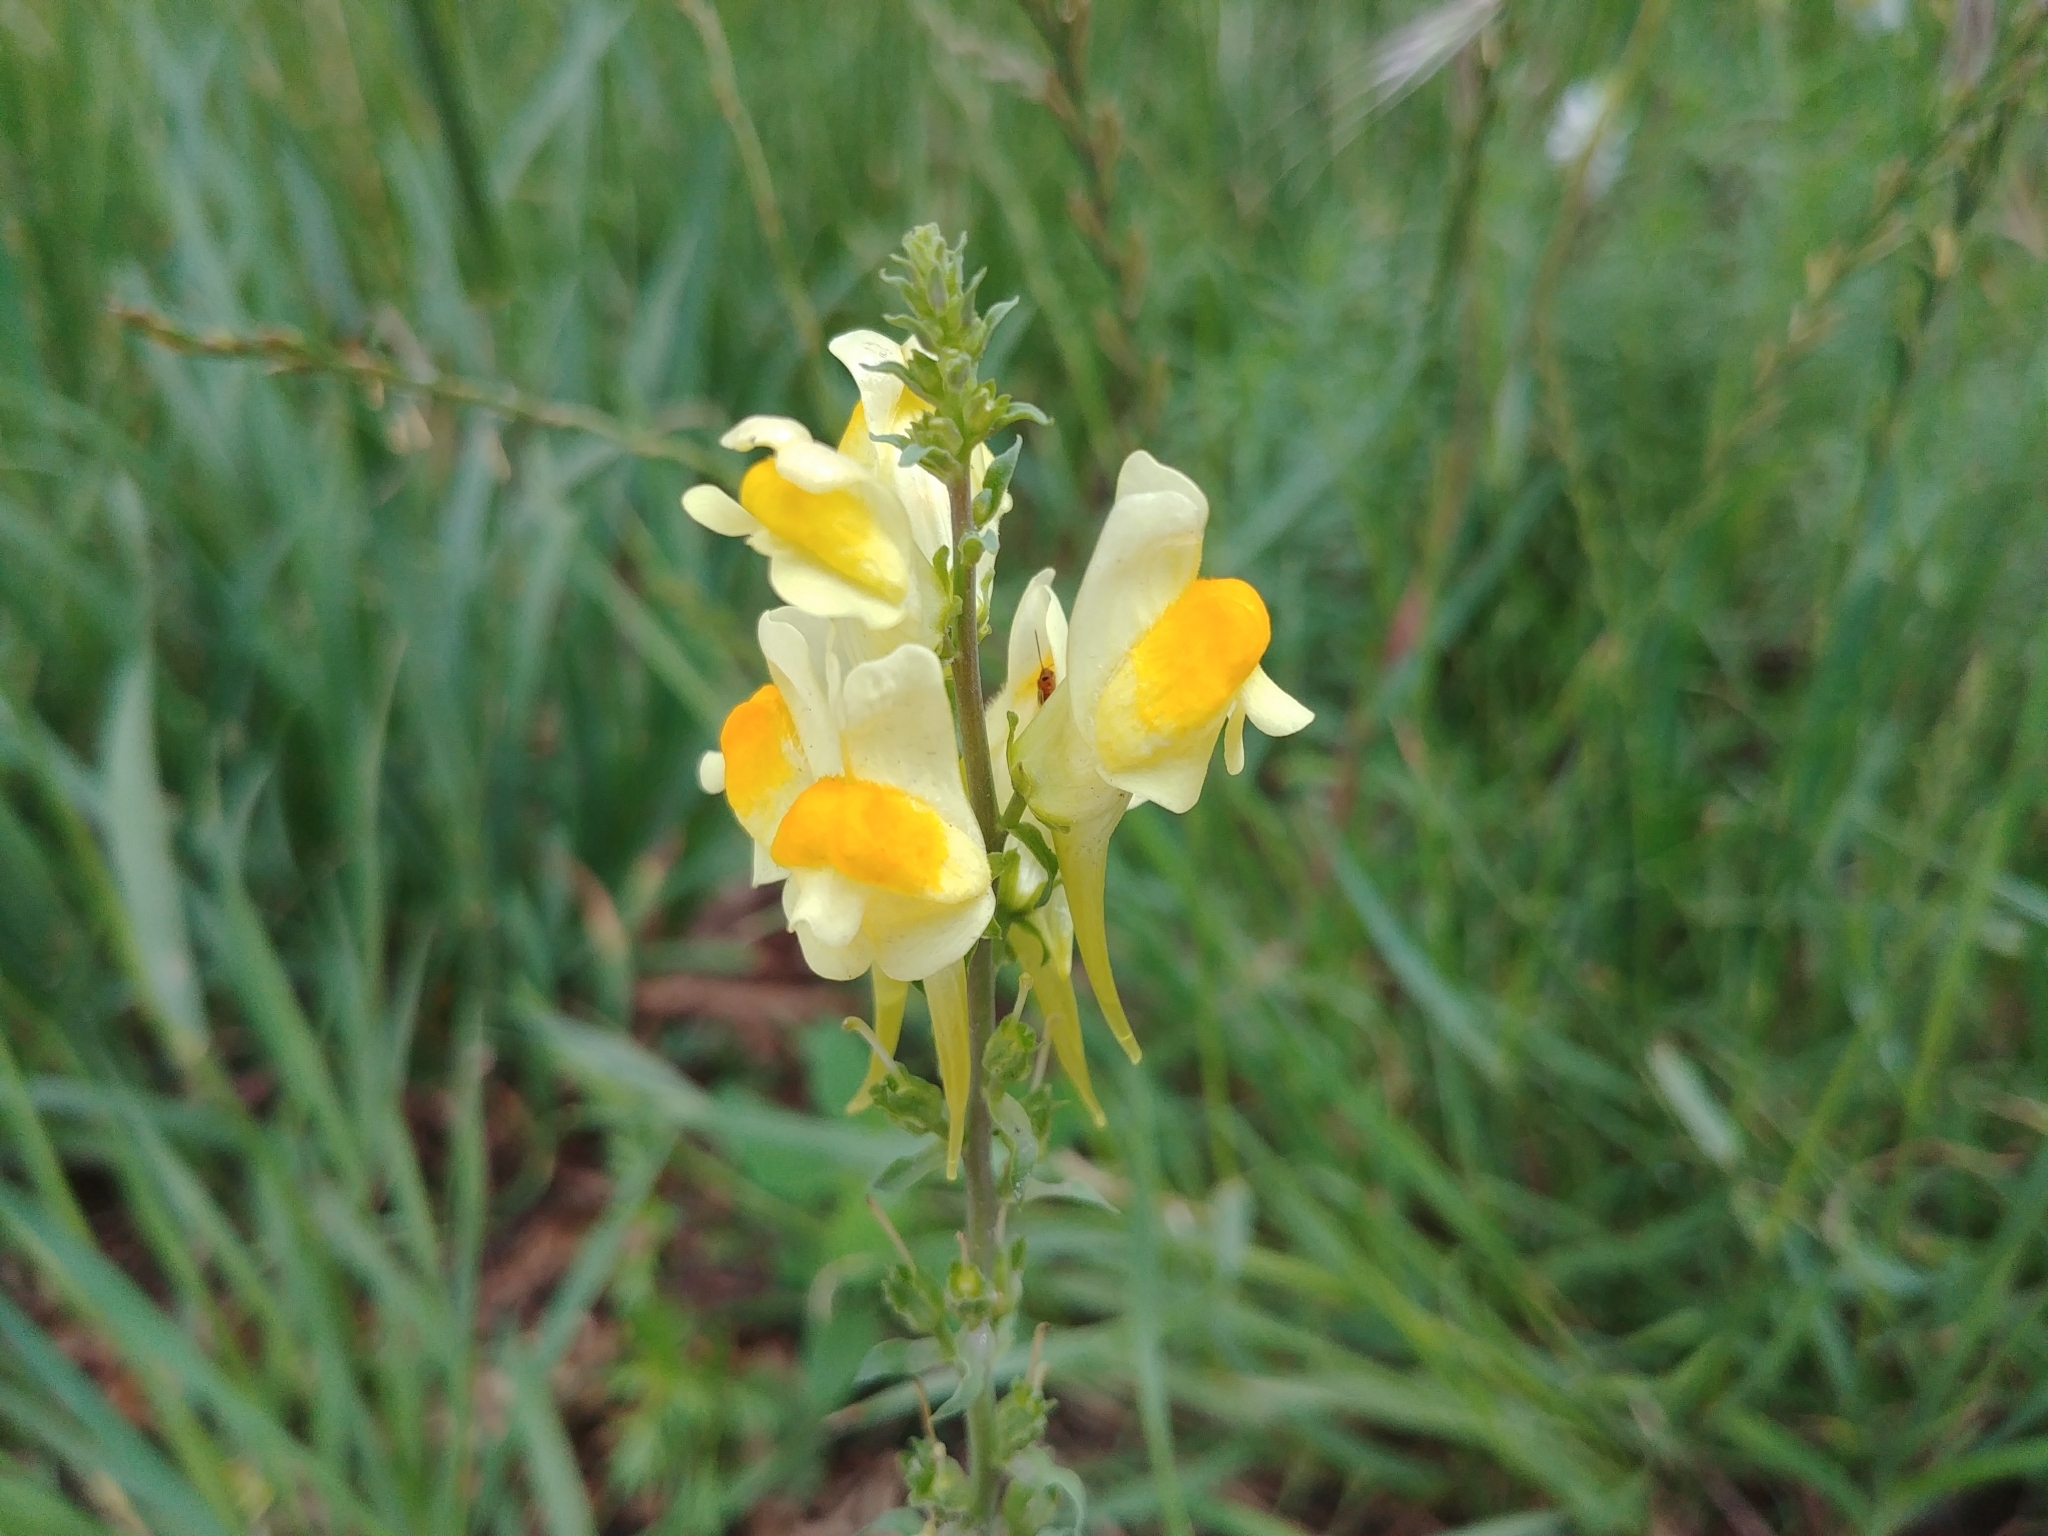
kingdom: Plantae
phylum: Tracheophyta
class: Magnoliopsida
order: Lamiales
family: Plantaginaceae
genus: Linaria
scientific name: Linaria vulgaris
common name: Butter and eggs
